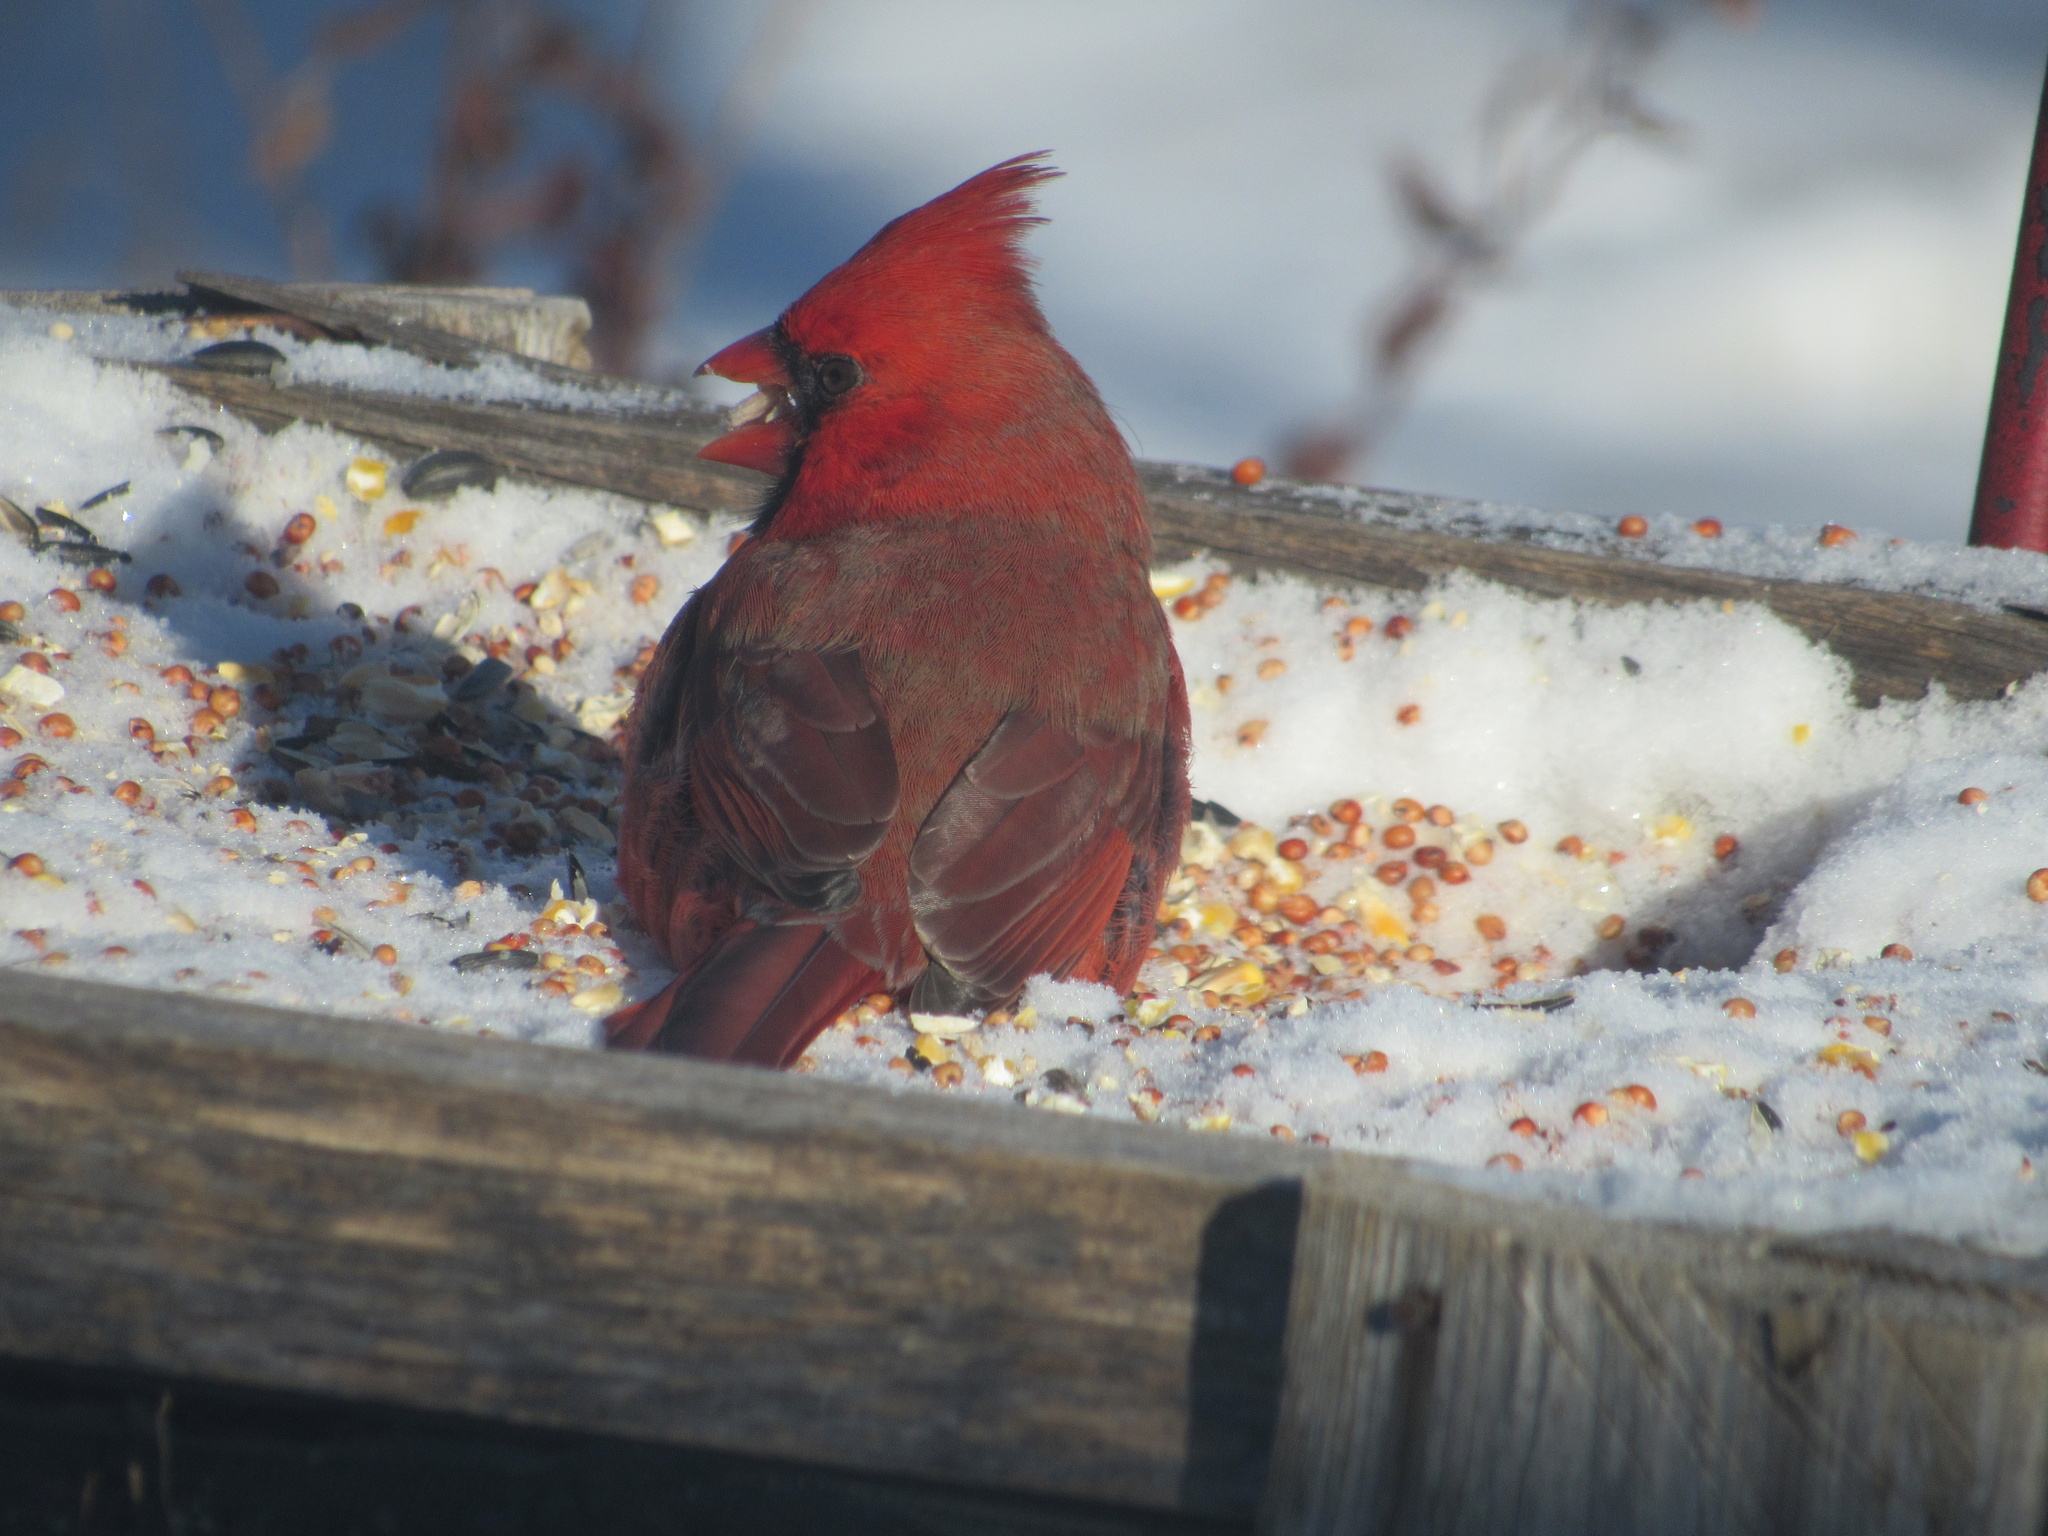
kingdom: Animalia
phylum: Chordata
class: Aves
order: Passeriformes
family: Cardinalidae
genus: Cardinalis
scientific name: Cardinalis cardinalis
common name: Northern cardinal
